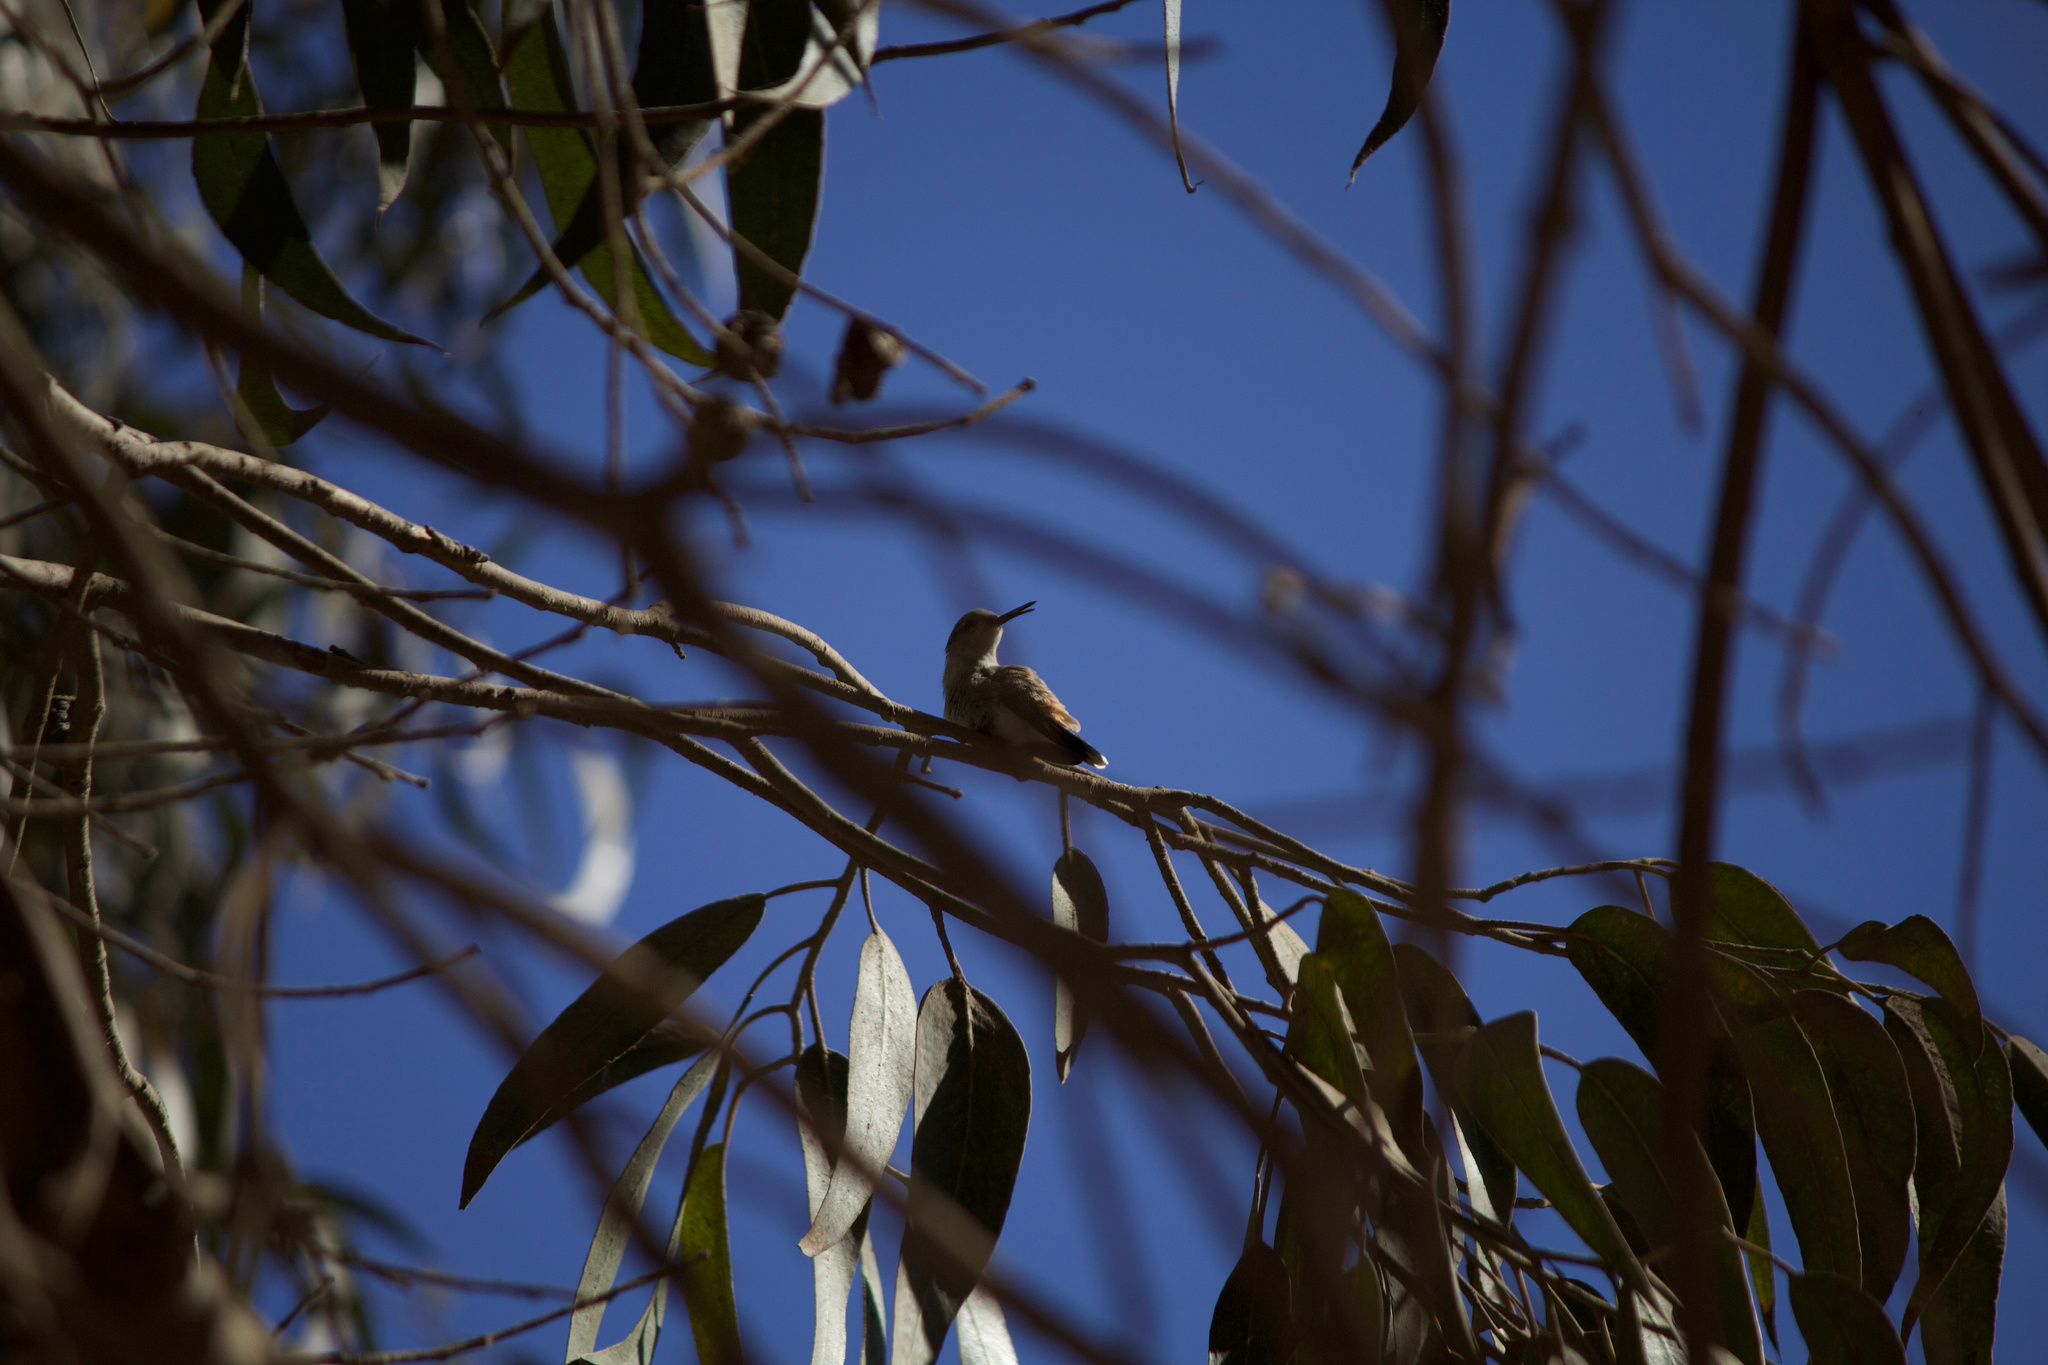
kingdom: Animalia
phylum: Chordata
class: Aves
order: Apodiformes
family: Trochilidae
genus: Rhodopis
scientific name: Rhodopis vesper
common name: Oasis hummingbird
